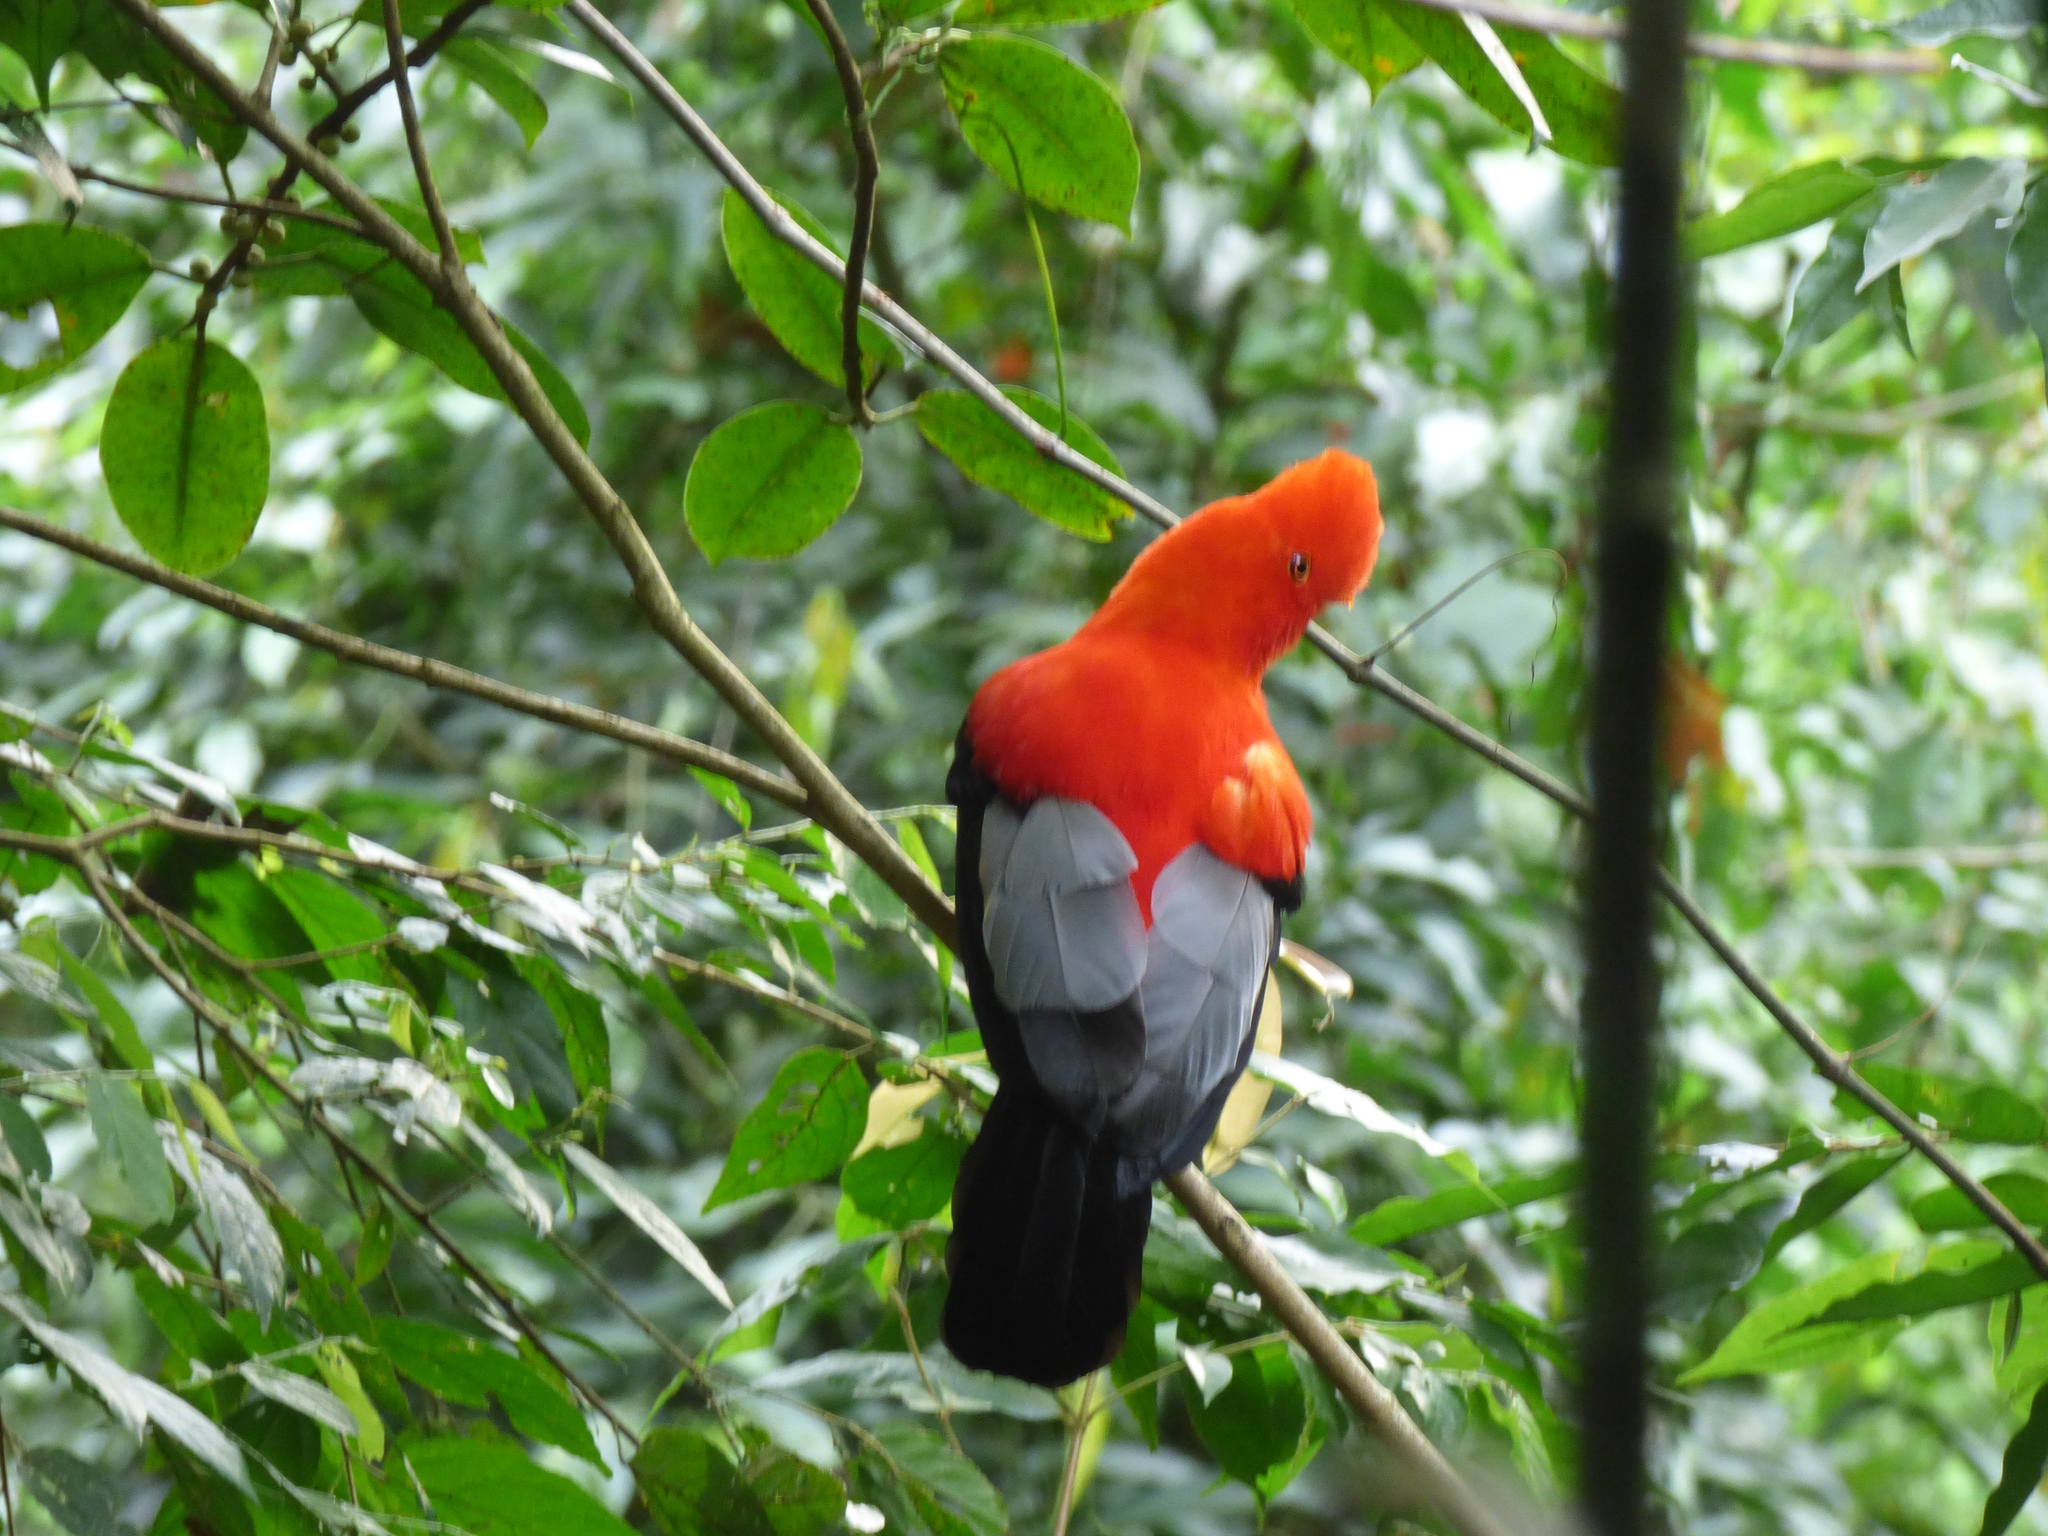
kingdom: Animalia
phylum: Chordata
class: Aves
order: Passeriformes
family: Cotingidae
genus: Rupicola
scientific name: Rupicola peruvianus
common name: Andean cock-of-the-rock
